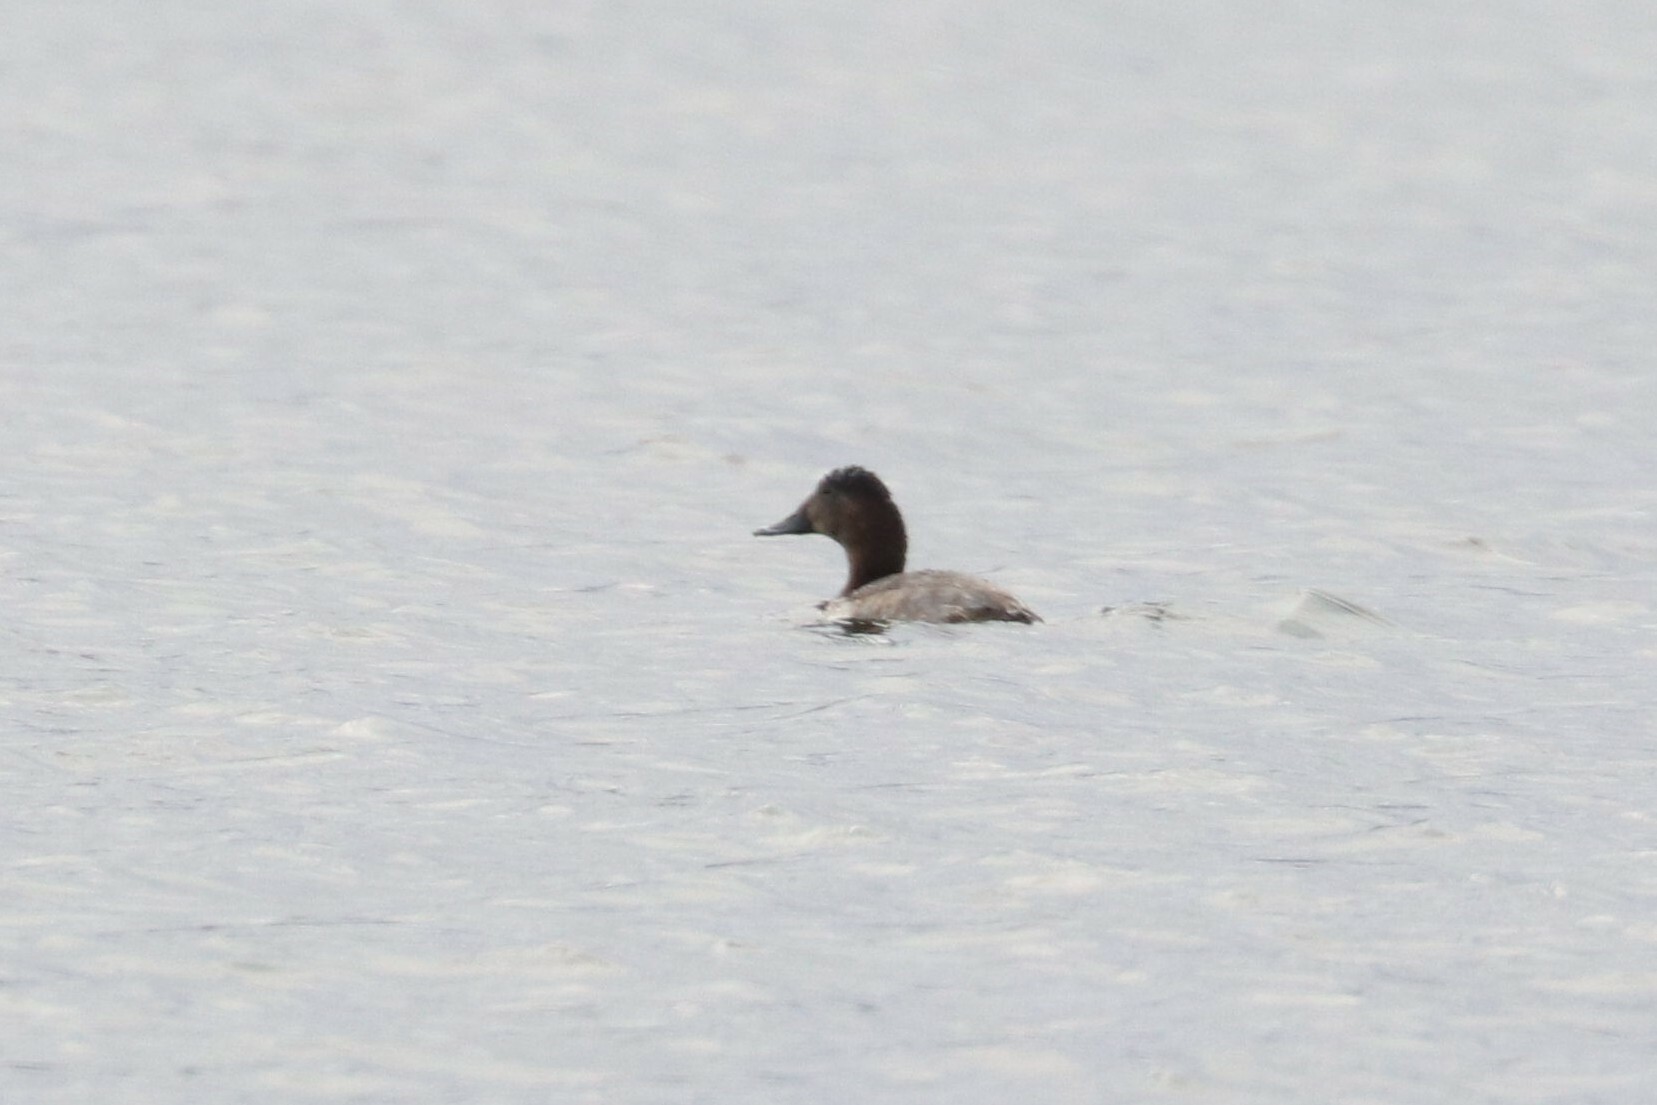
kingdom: Animalia
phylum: Chordata
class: Aves
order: Anseriformes
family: Anatidae
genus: Aythya
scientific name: Aythya ferina
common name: Common pochard
